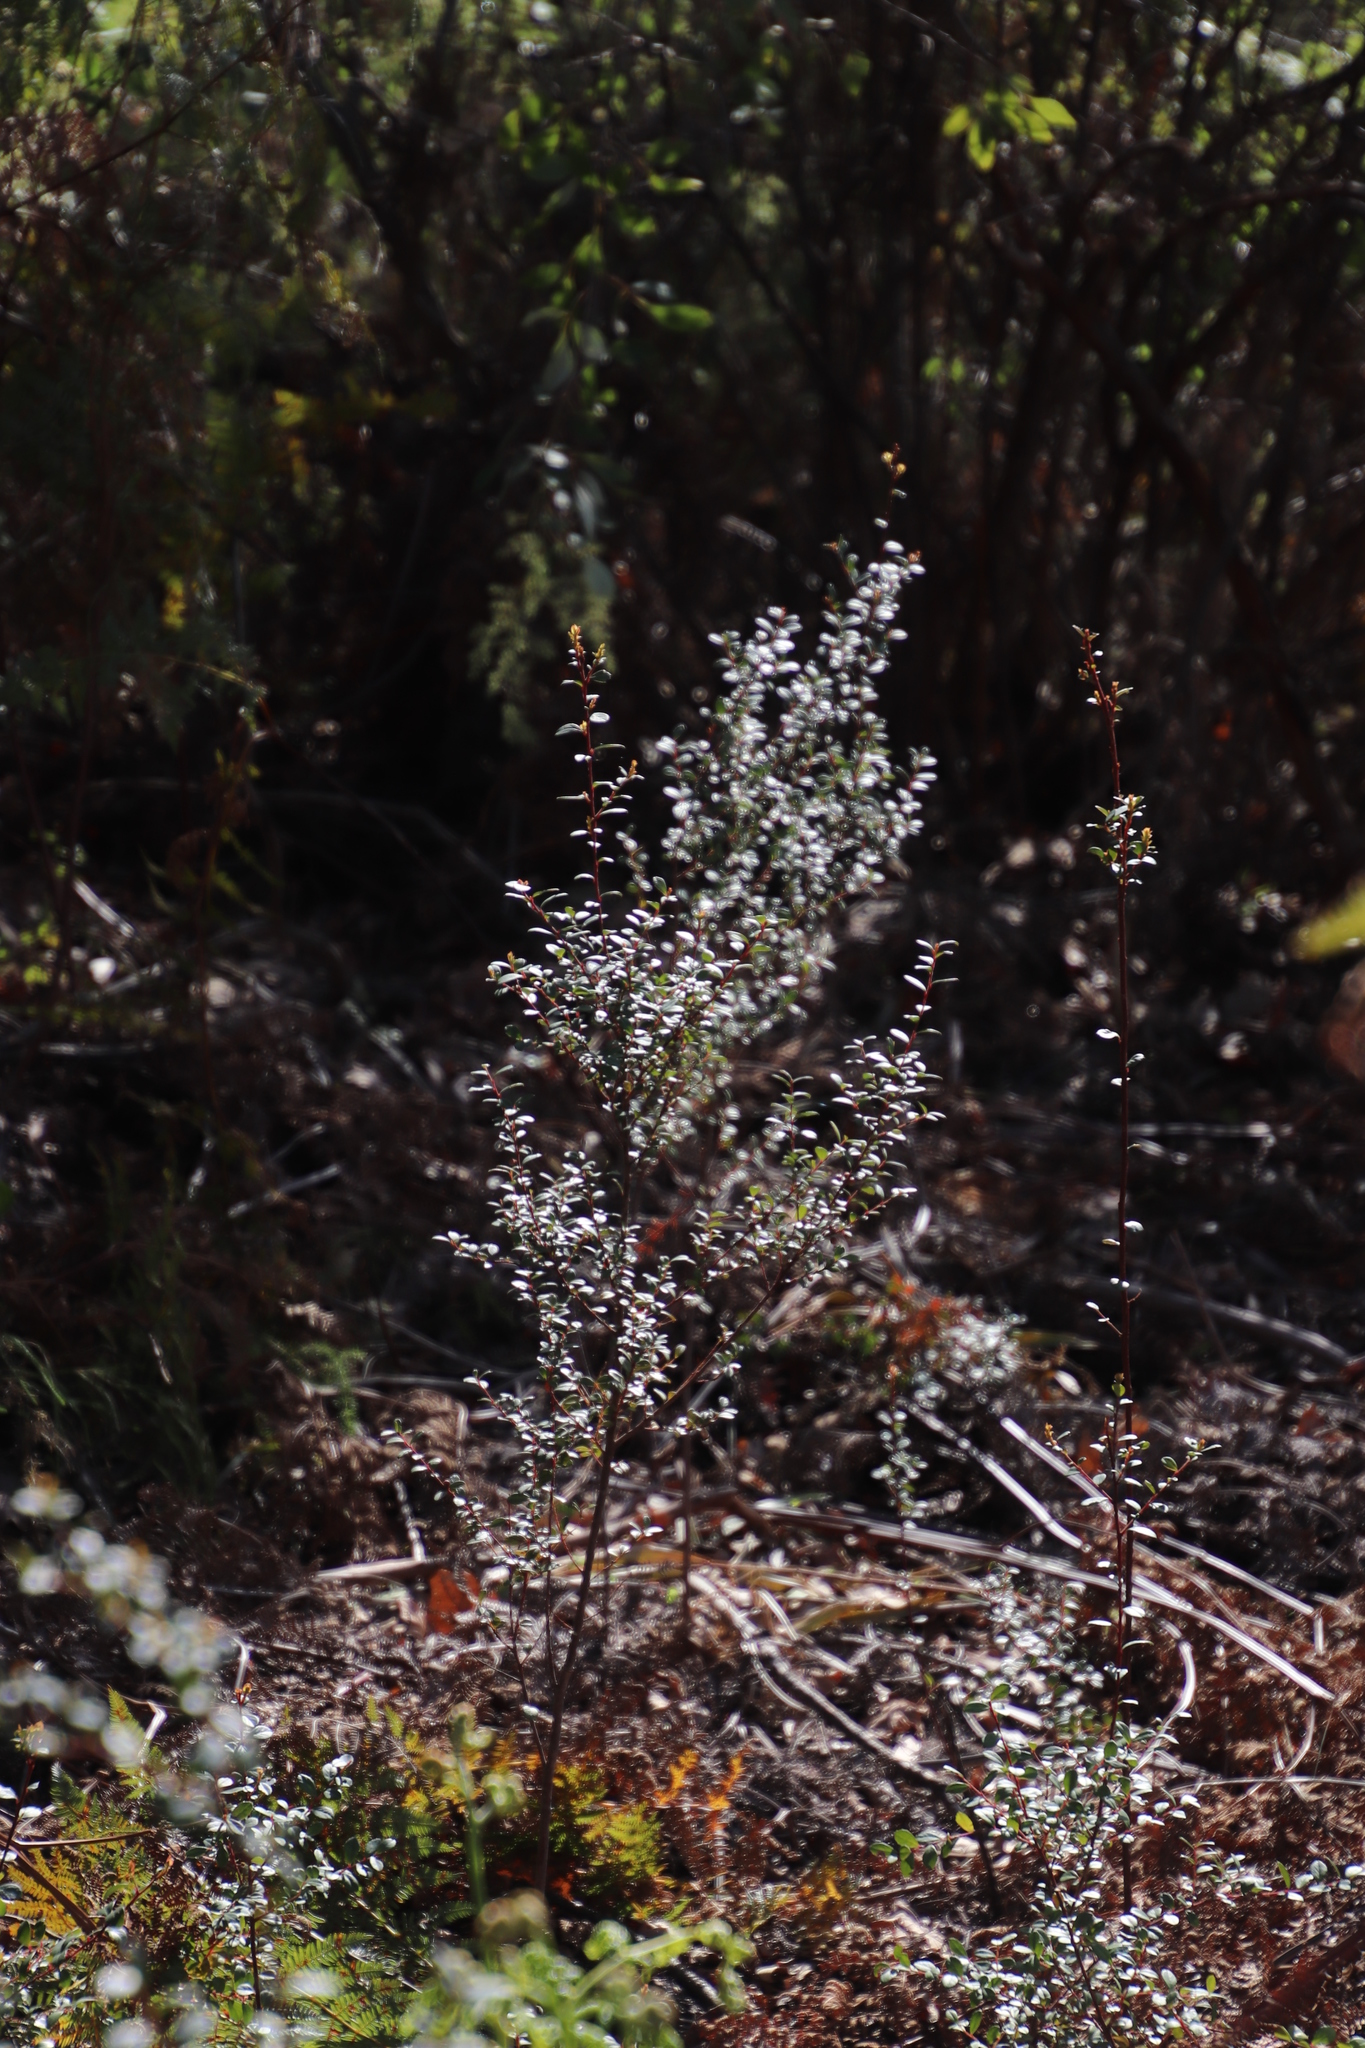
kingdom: Plantae
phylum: Tracheophyta
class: Magnoliopsida
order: Ericales
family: Primulaceae
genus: Myrsine
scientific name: Myrsine africana
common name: African-boxwood
